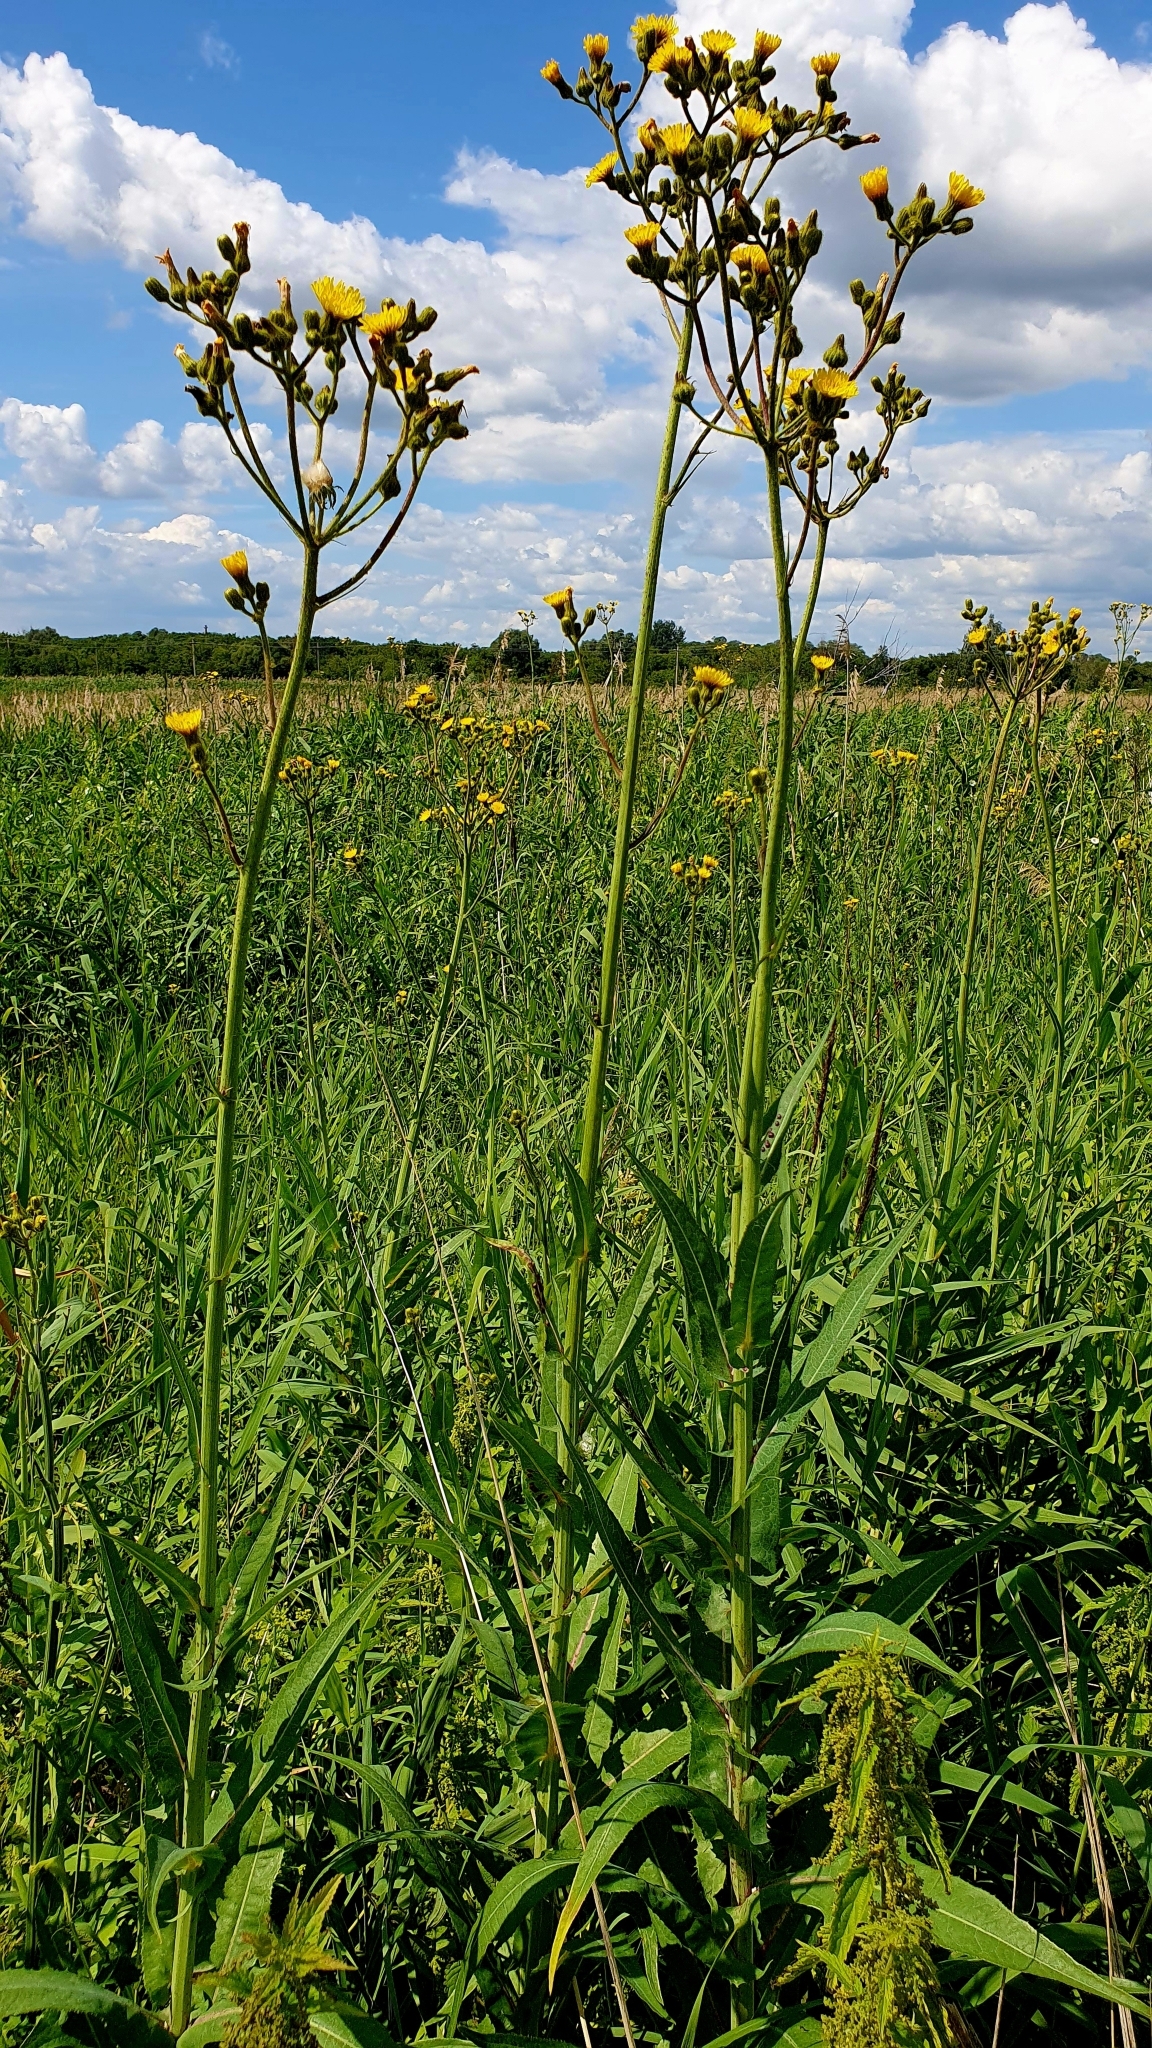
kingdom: Plantae
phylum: Tracheophyta
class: Magnoliopsida
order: Asterales
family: Asteraceae
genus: Sonchus
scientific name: Sonchus palustris
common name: Marsh sow-thistle
